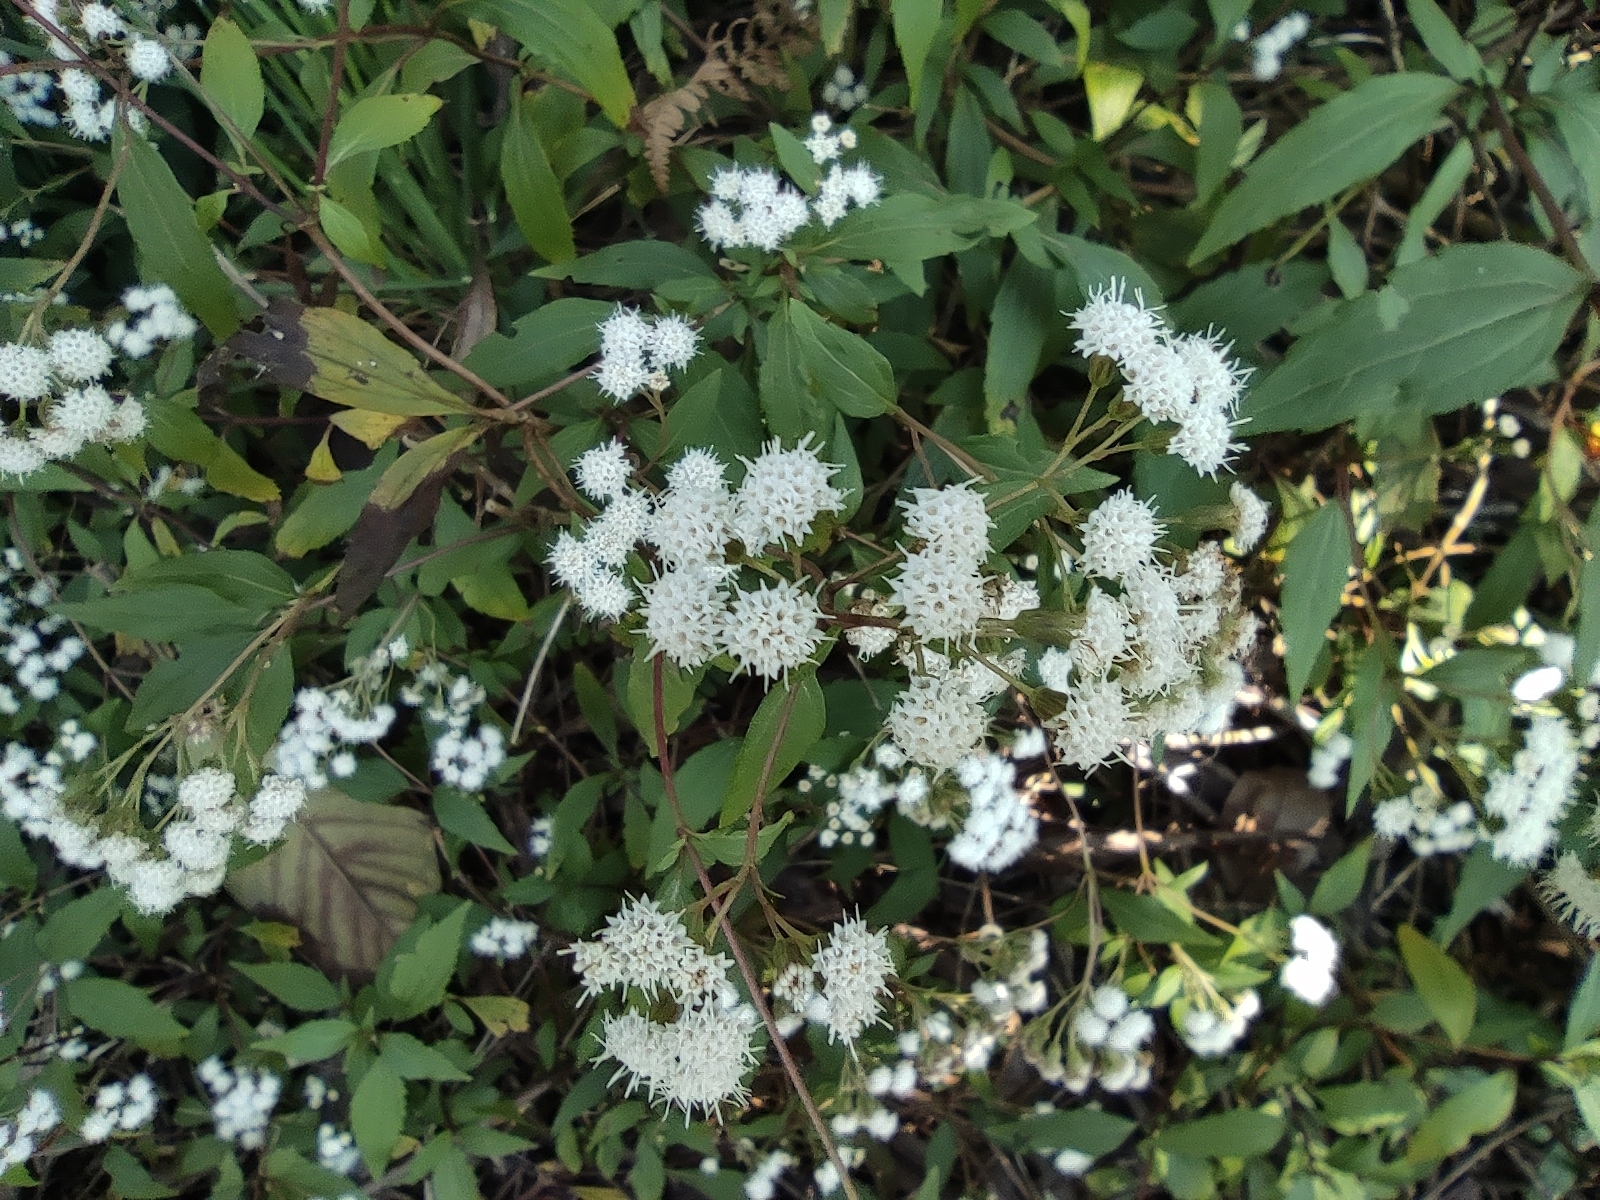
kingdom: Plantae
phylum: Tracheophyta
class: Magnoliopsida
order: Asterales
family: Asteraceae
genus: Ageratina
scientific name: Ageratina riparia
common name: Creeping croftonweed
